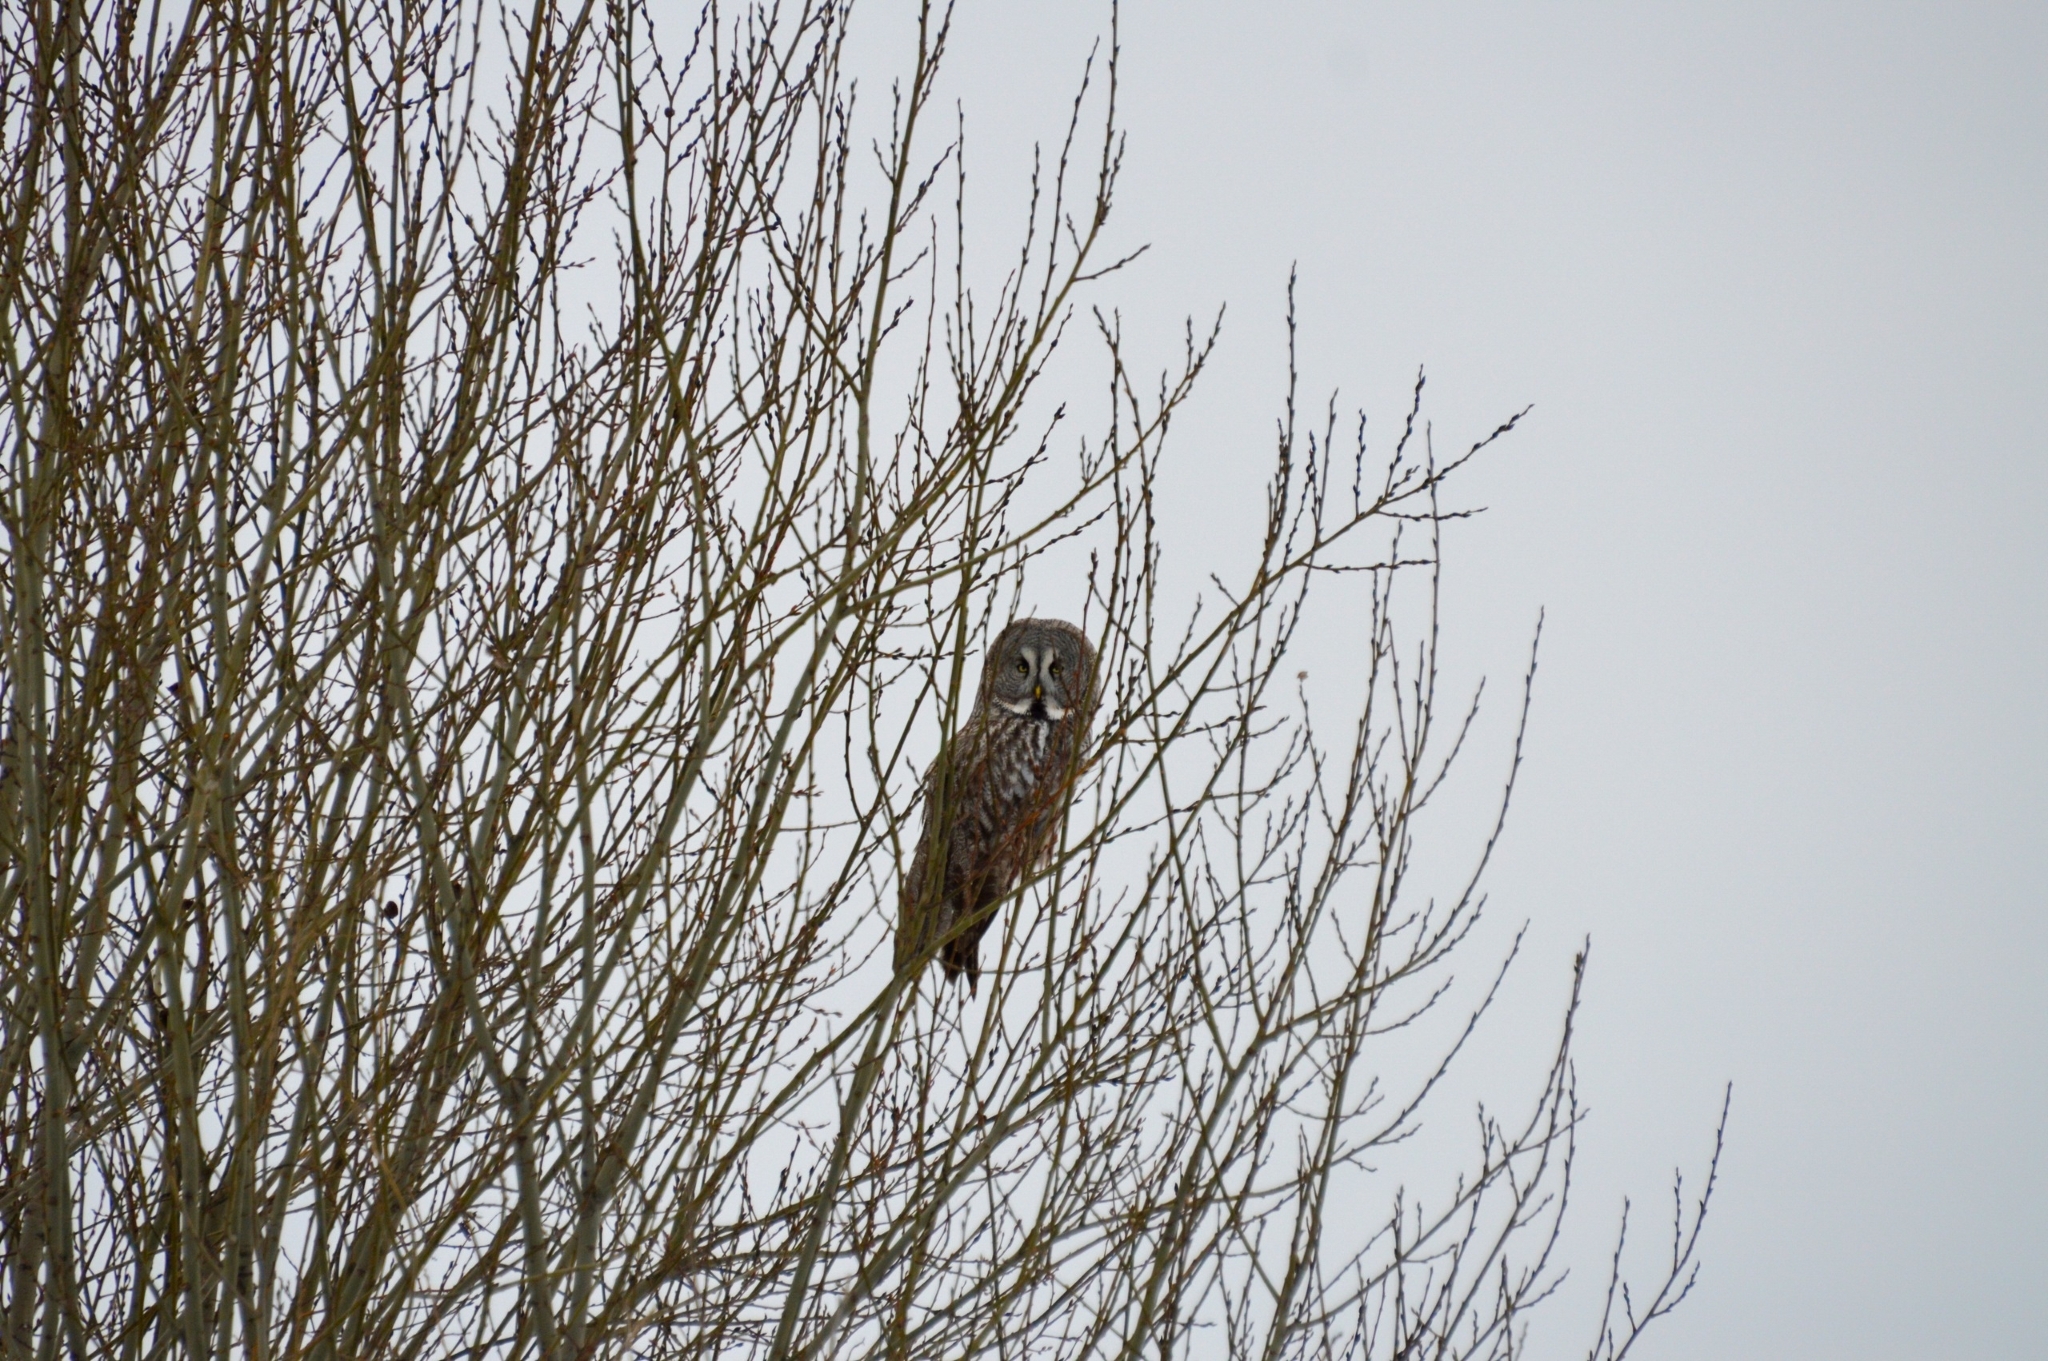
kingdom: Animalia
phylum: Chordata
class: Aves
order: Strigiformes
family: Strigidae
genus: Strix
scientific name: Strix nebulosa
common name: Great grey owl
